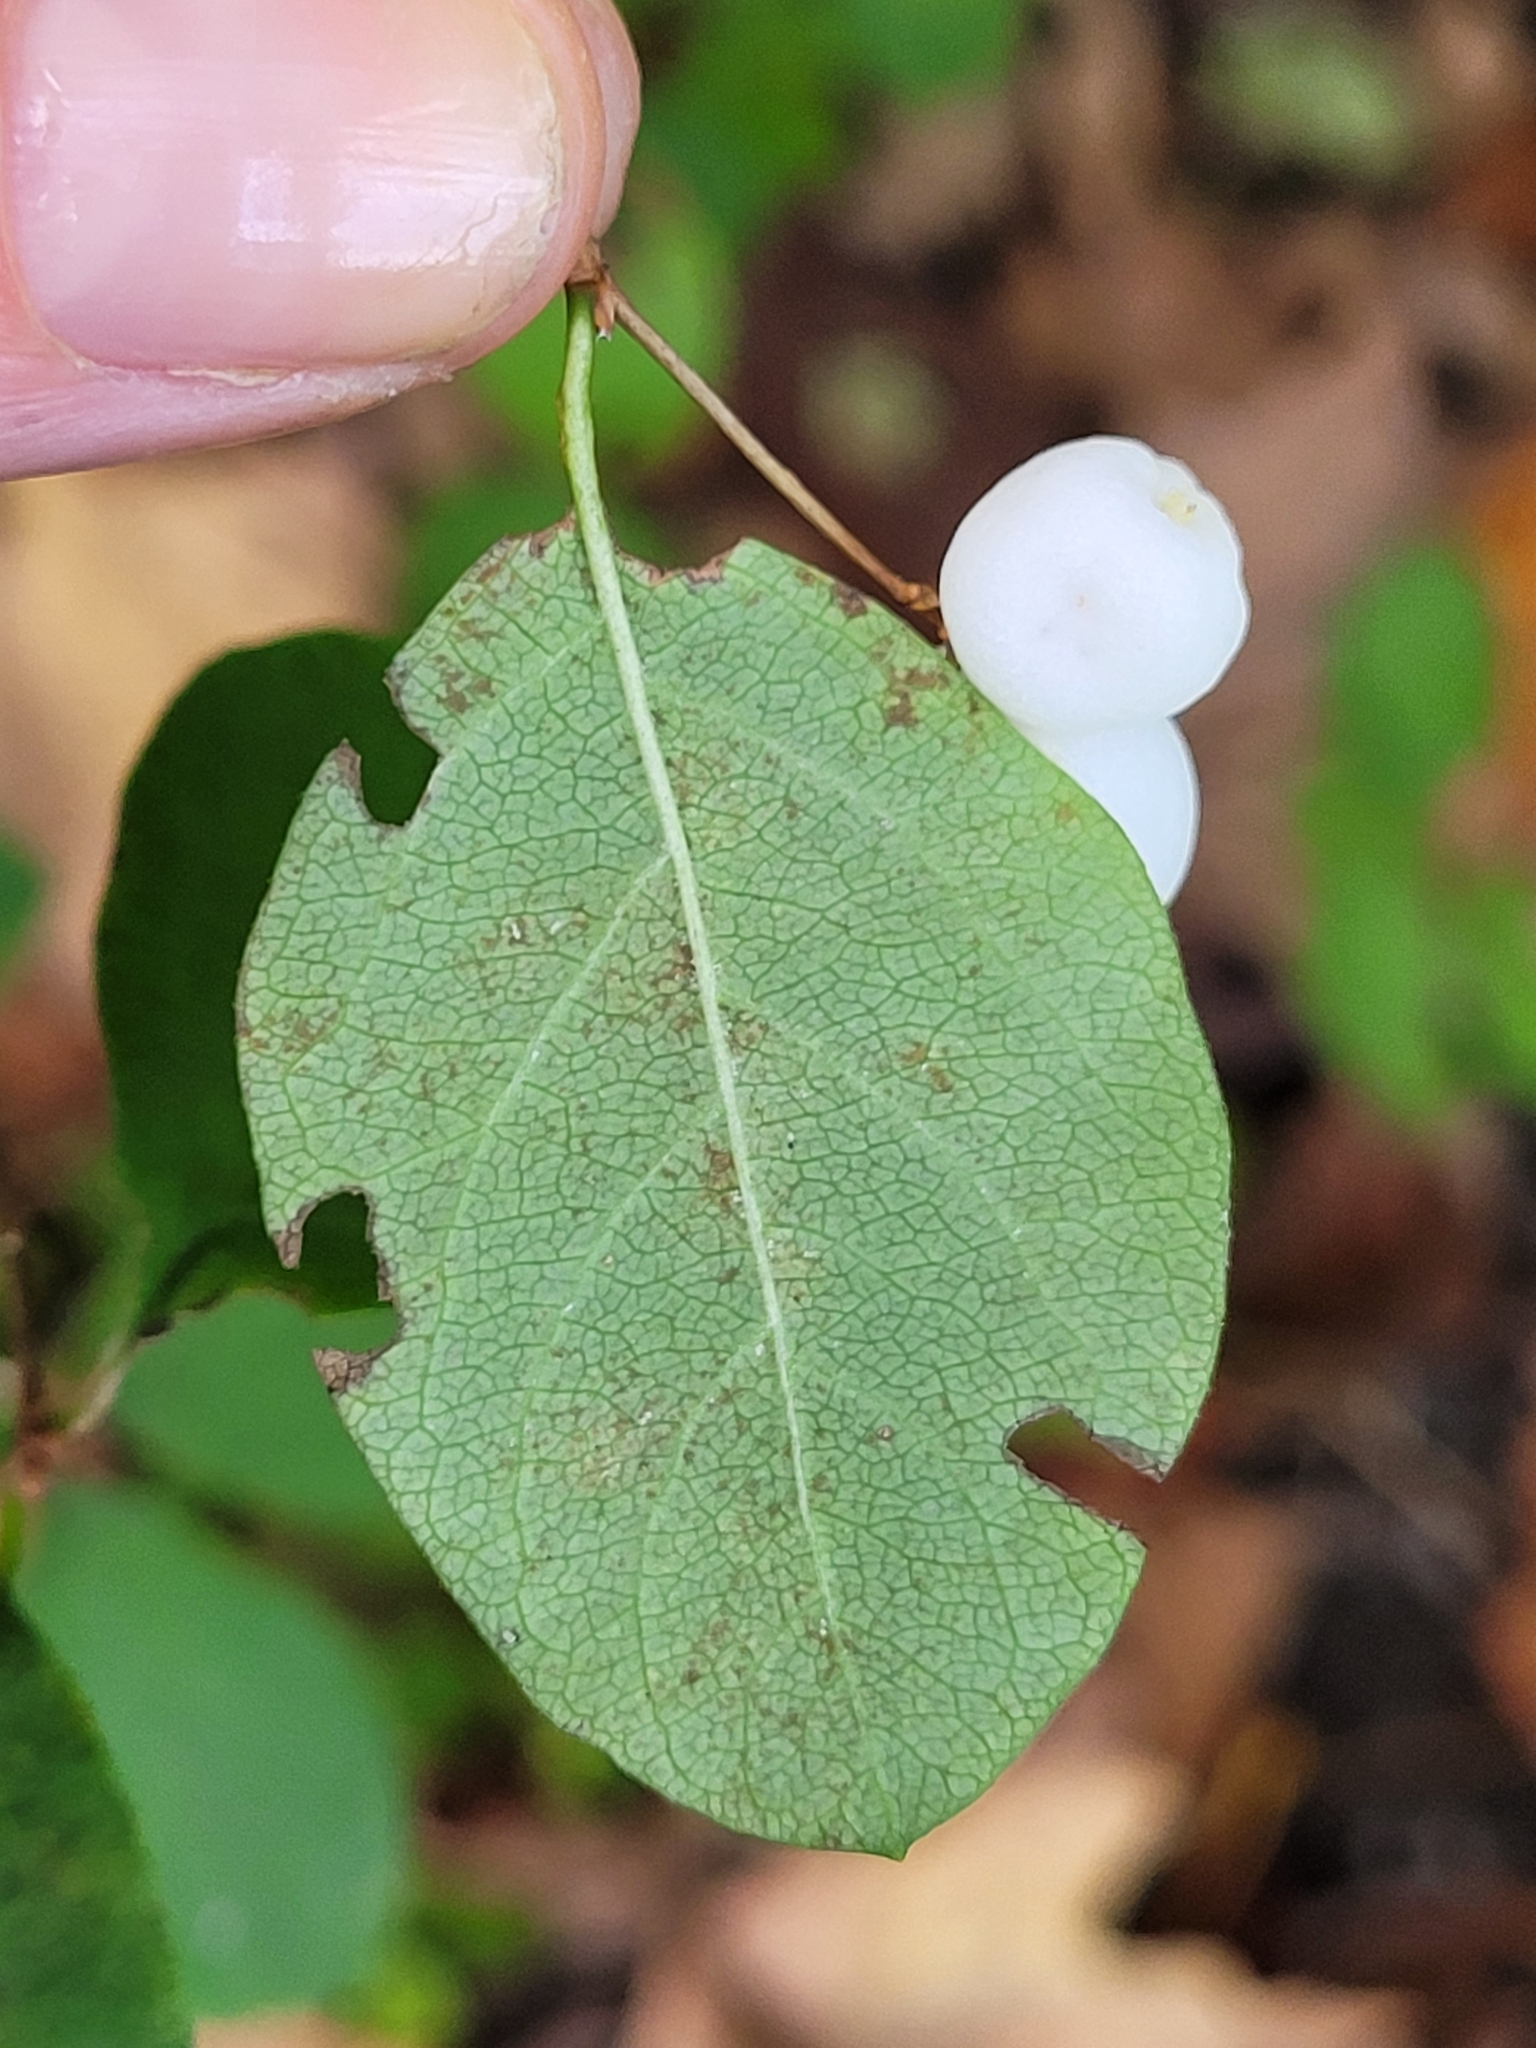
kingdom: Plantae
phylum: Tracheophyta
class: Magnoliopsida
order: Dipsacales
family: Caprifoliaceae
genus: Symphoricarpos
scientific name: Symphoricarpos albus
